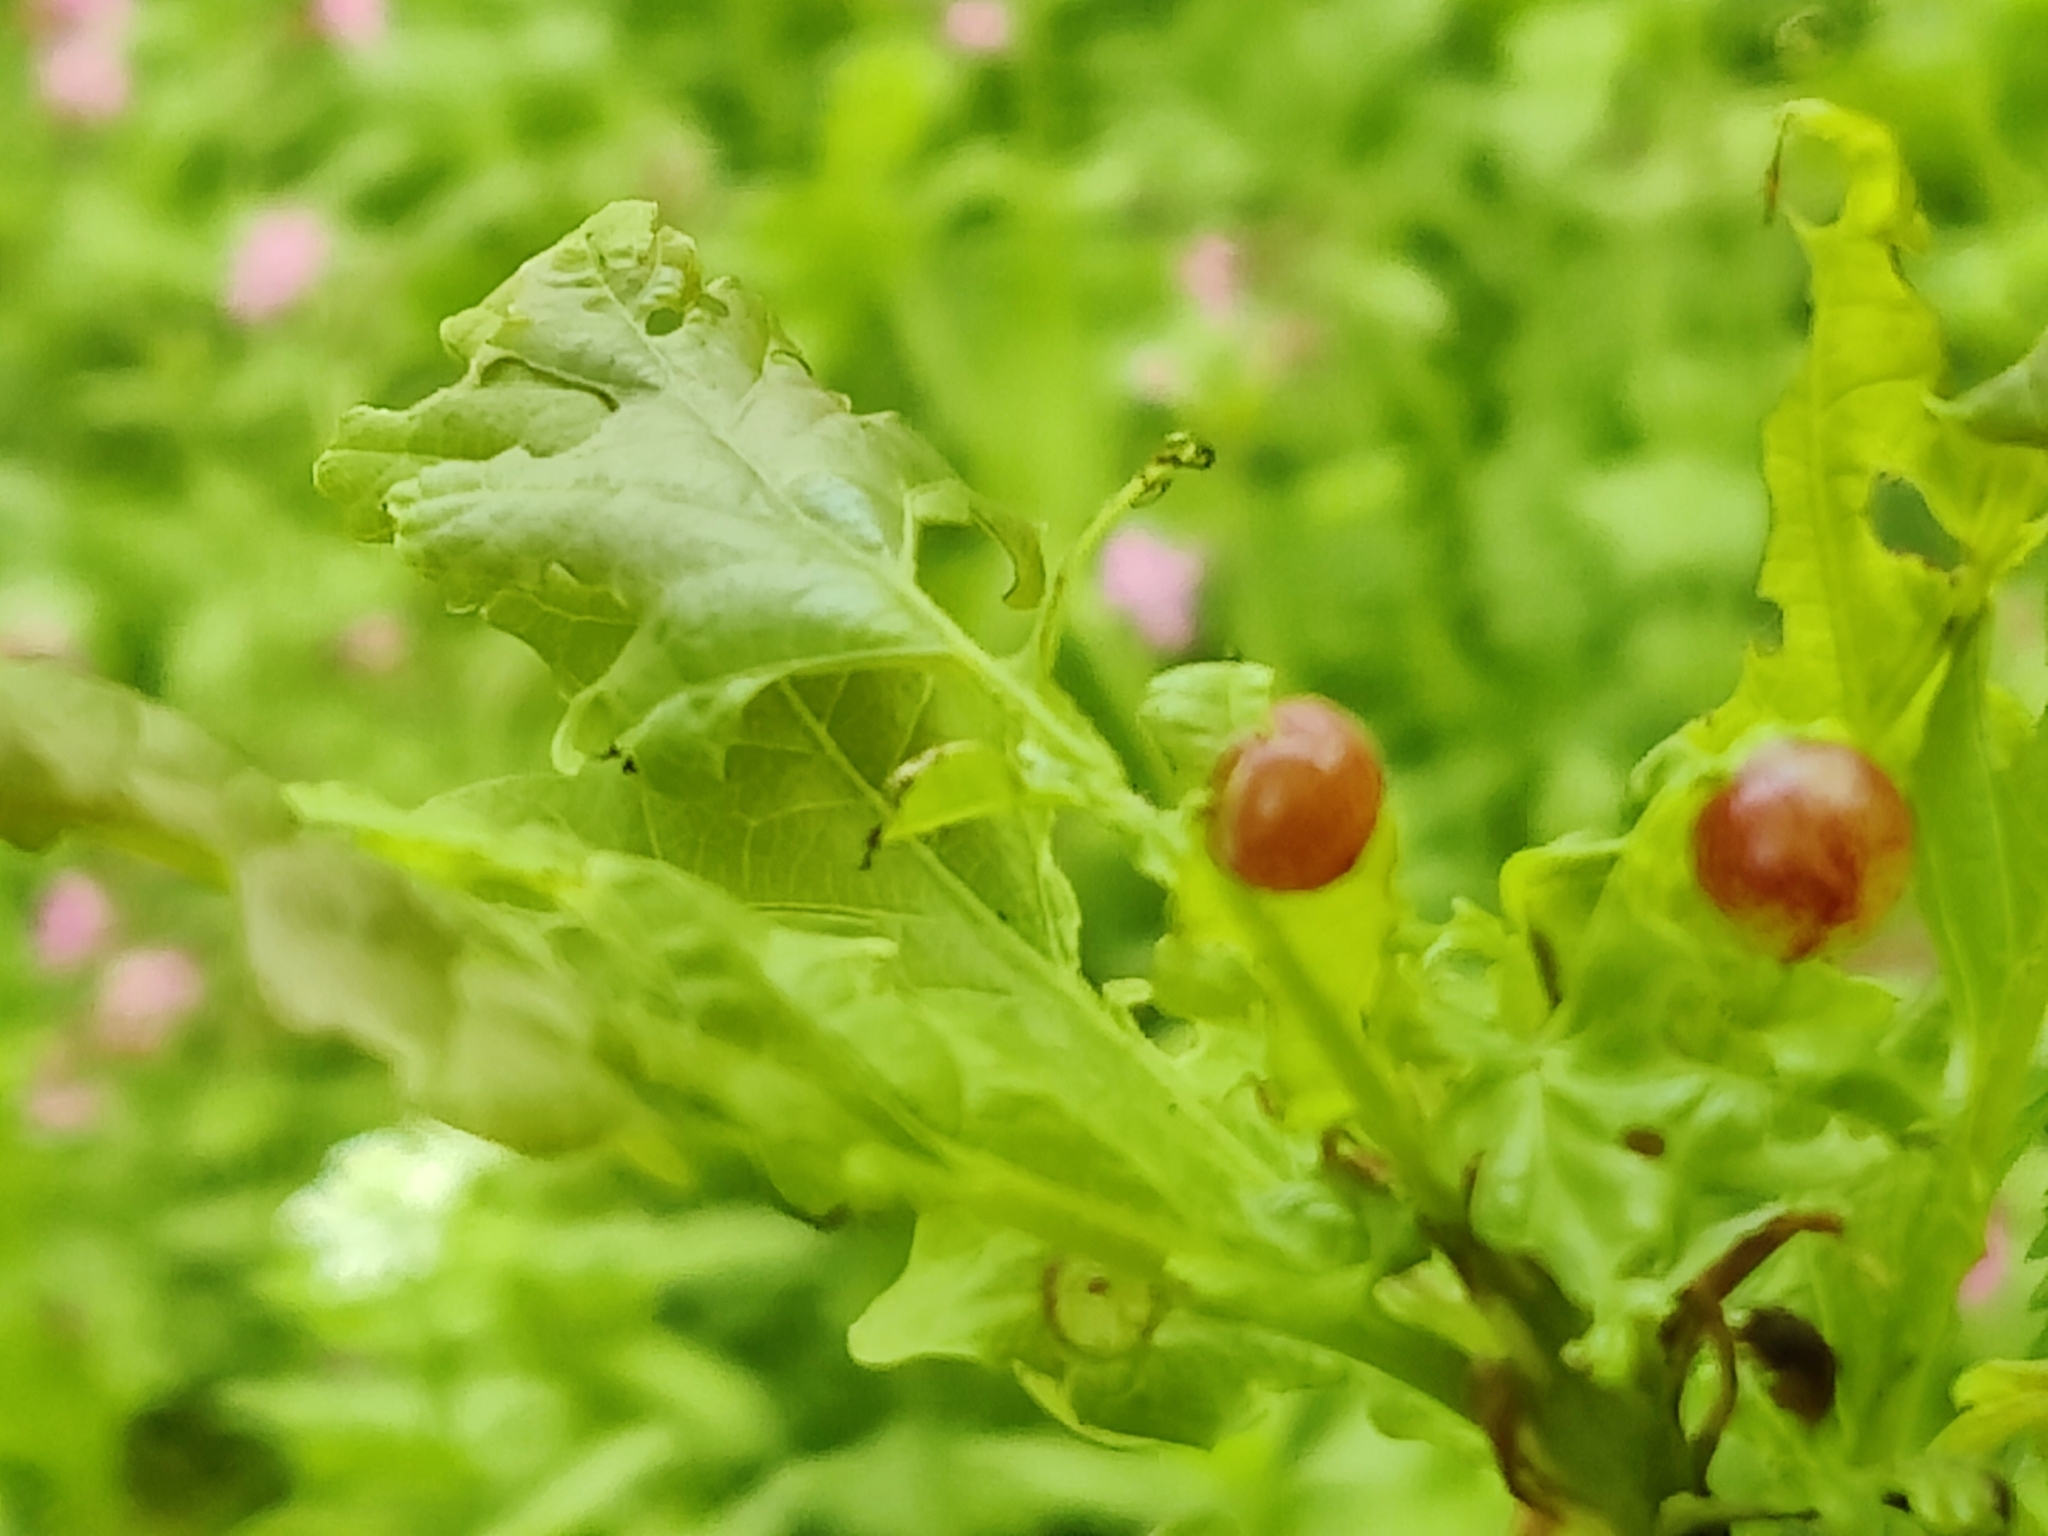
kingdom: Animalia
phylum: Arthropoda
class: Insecta
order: Hymenoptera
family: Cynipidae
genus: Neuroterus
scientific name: Neuroterus quercusbaccarum
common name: Common spangle gall
